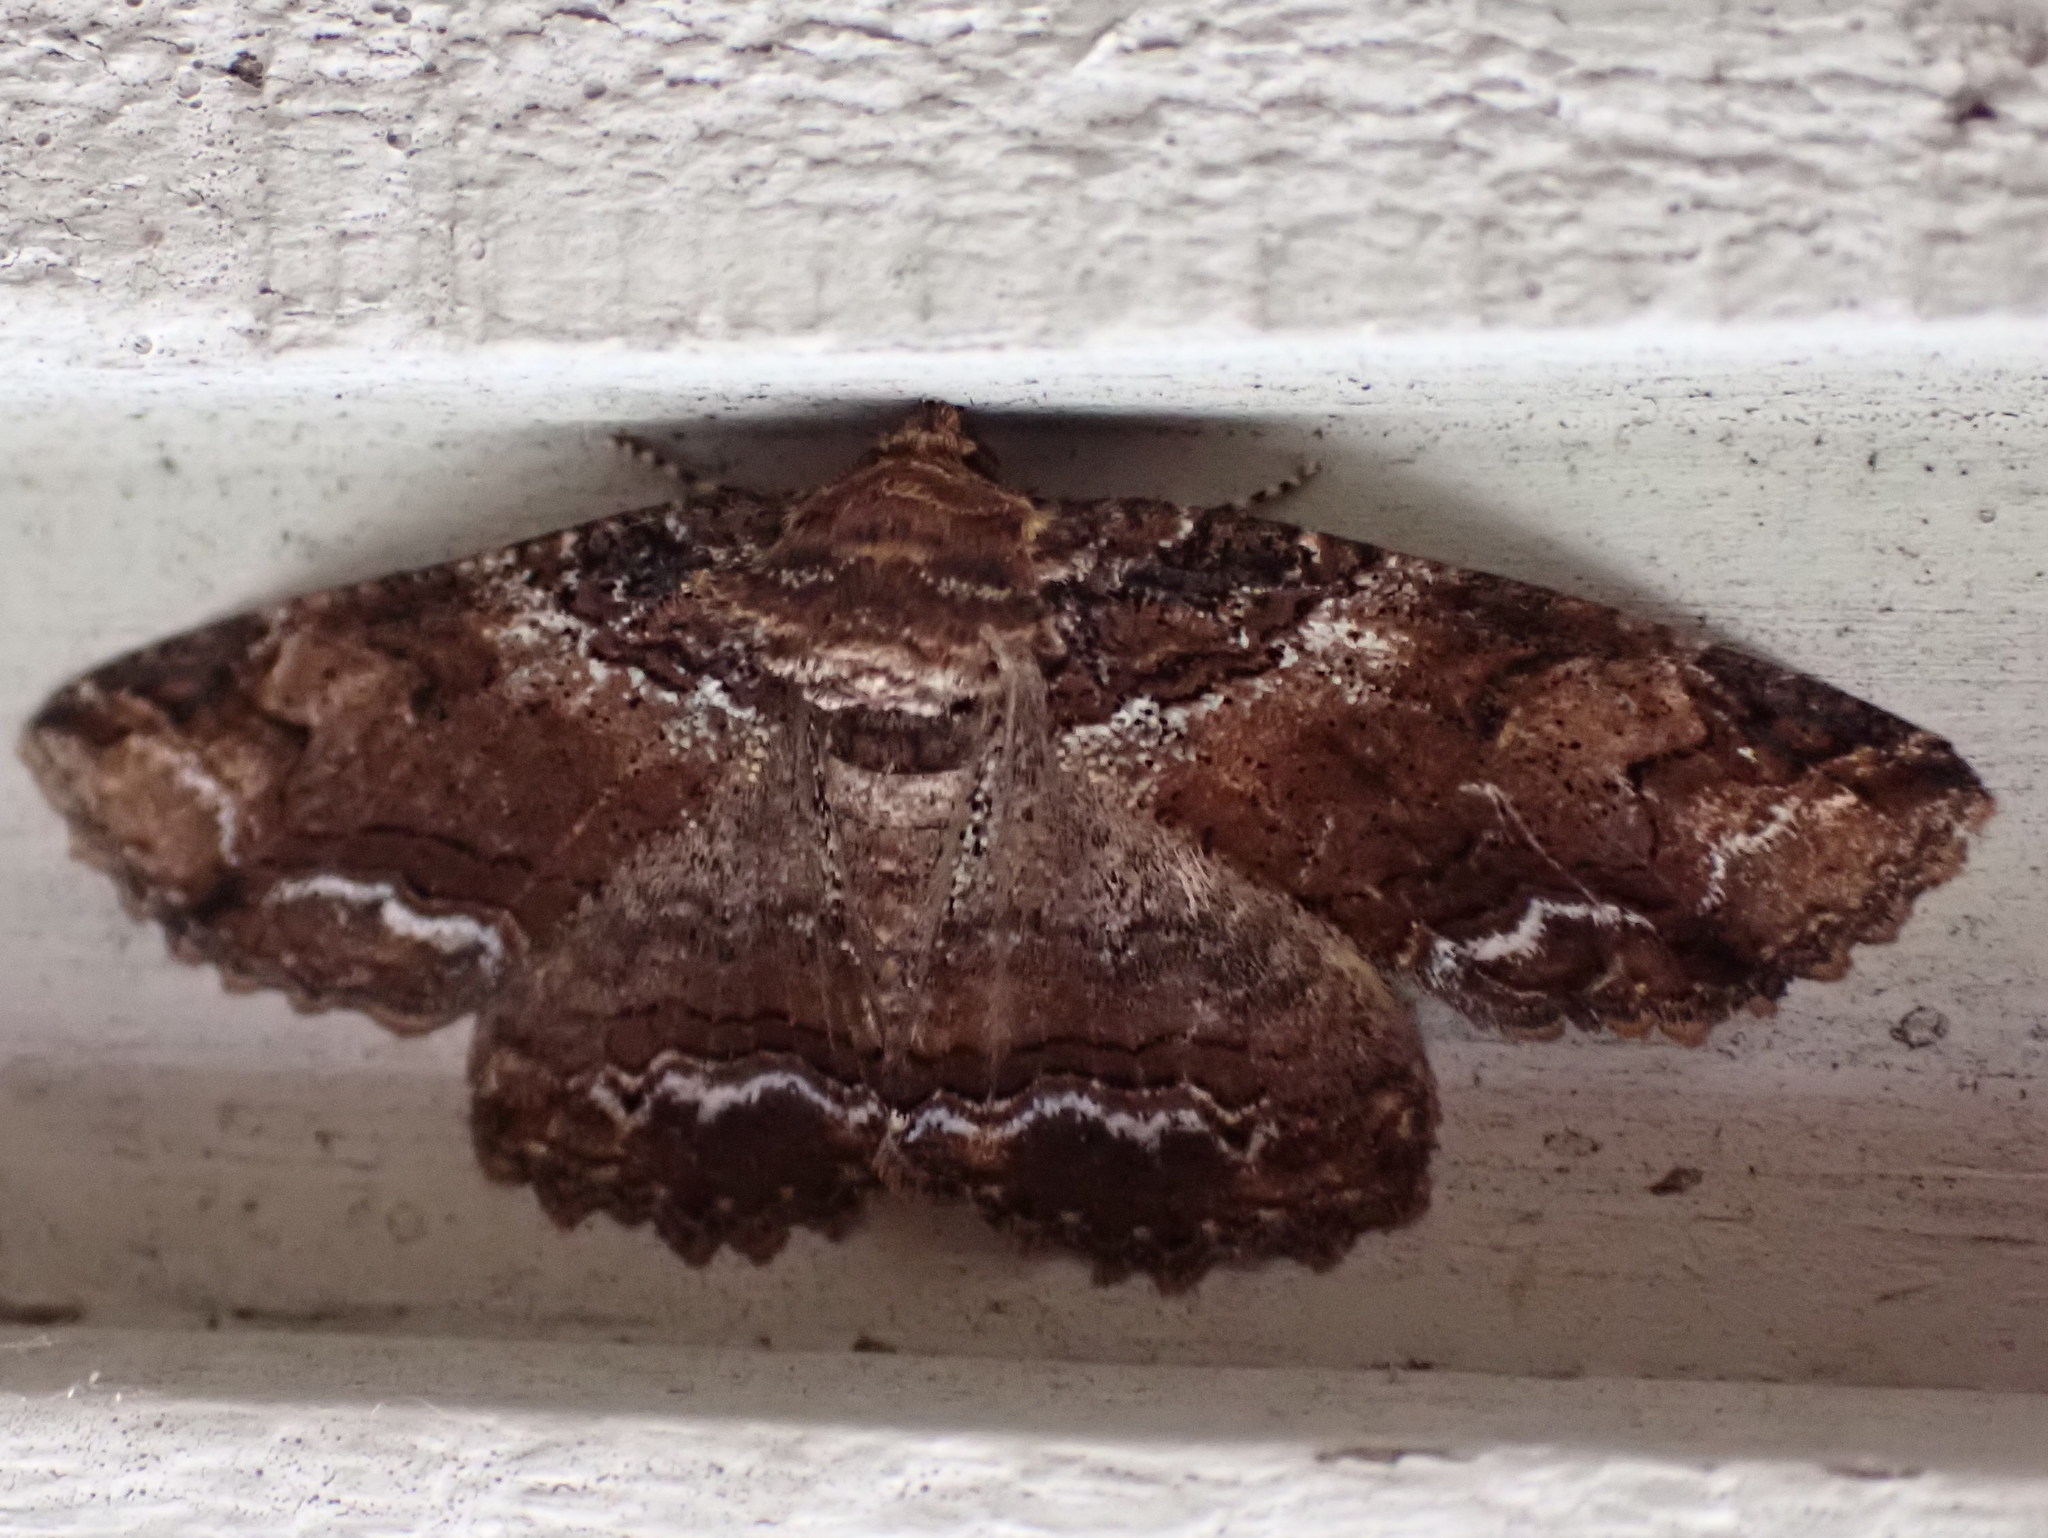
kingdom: Animalia
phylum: Arthropoda
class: Insecta
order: Lepidoptera
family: Erebidae
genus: Zale
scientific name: Zale minerea
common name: Colorful zale moth
